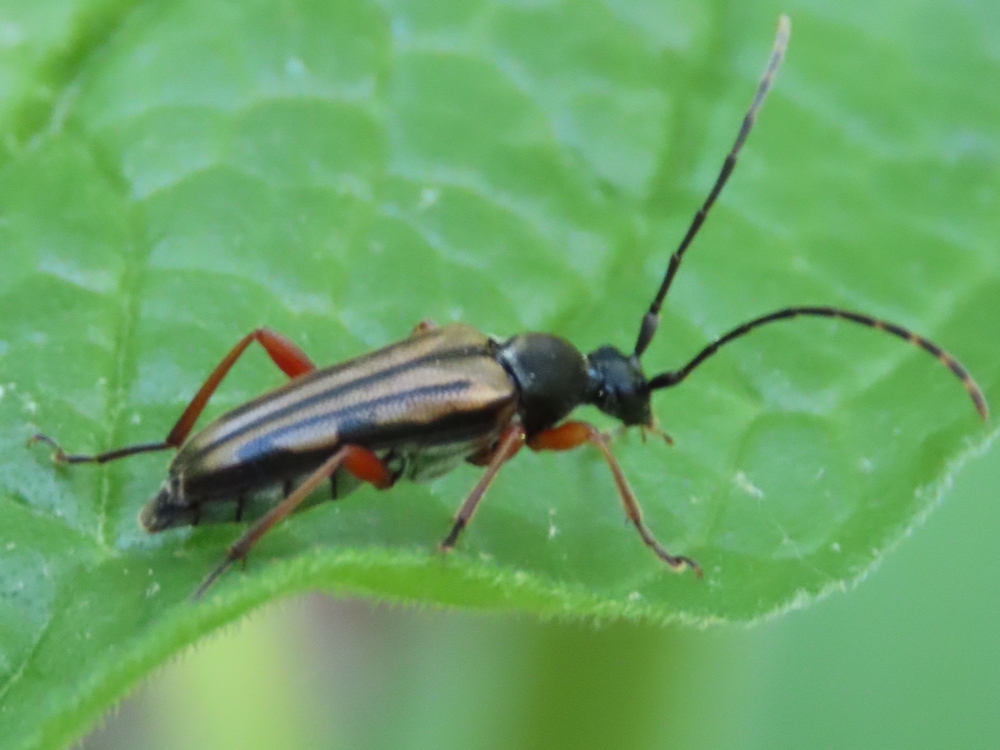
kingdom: Animalia
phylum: Arthropoda
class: Insecta
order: Coleoptera
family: Cerambycidae
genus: Analeptura
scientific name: Analeptura lineola
